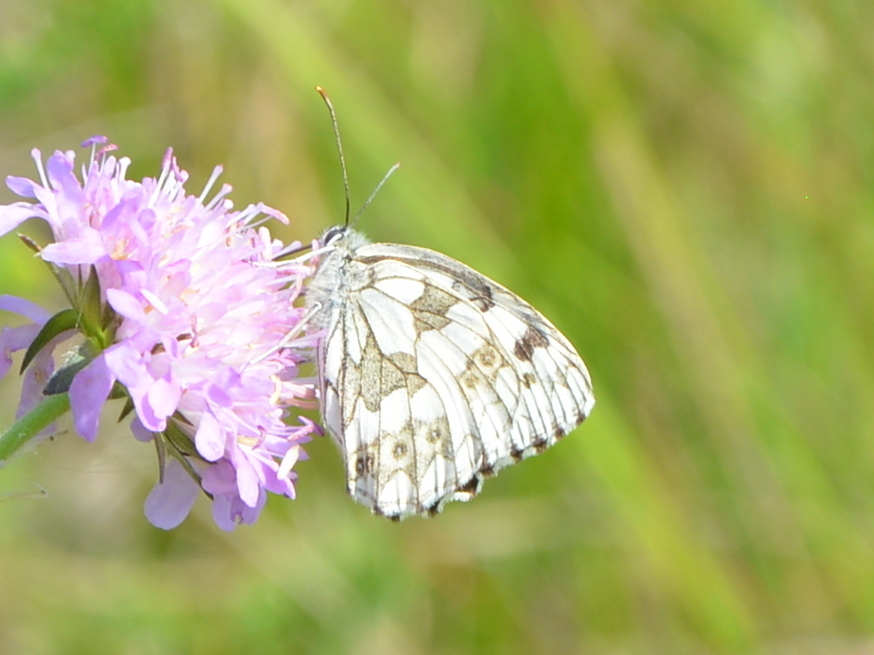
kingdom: Animalia
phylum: Arthropoda
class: Insecta
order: Lepidoptera
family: Nymphalidae
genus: Melanargia
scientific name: Melanargia galathea
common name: Marbled white
